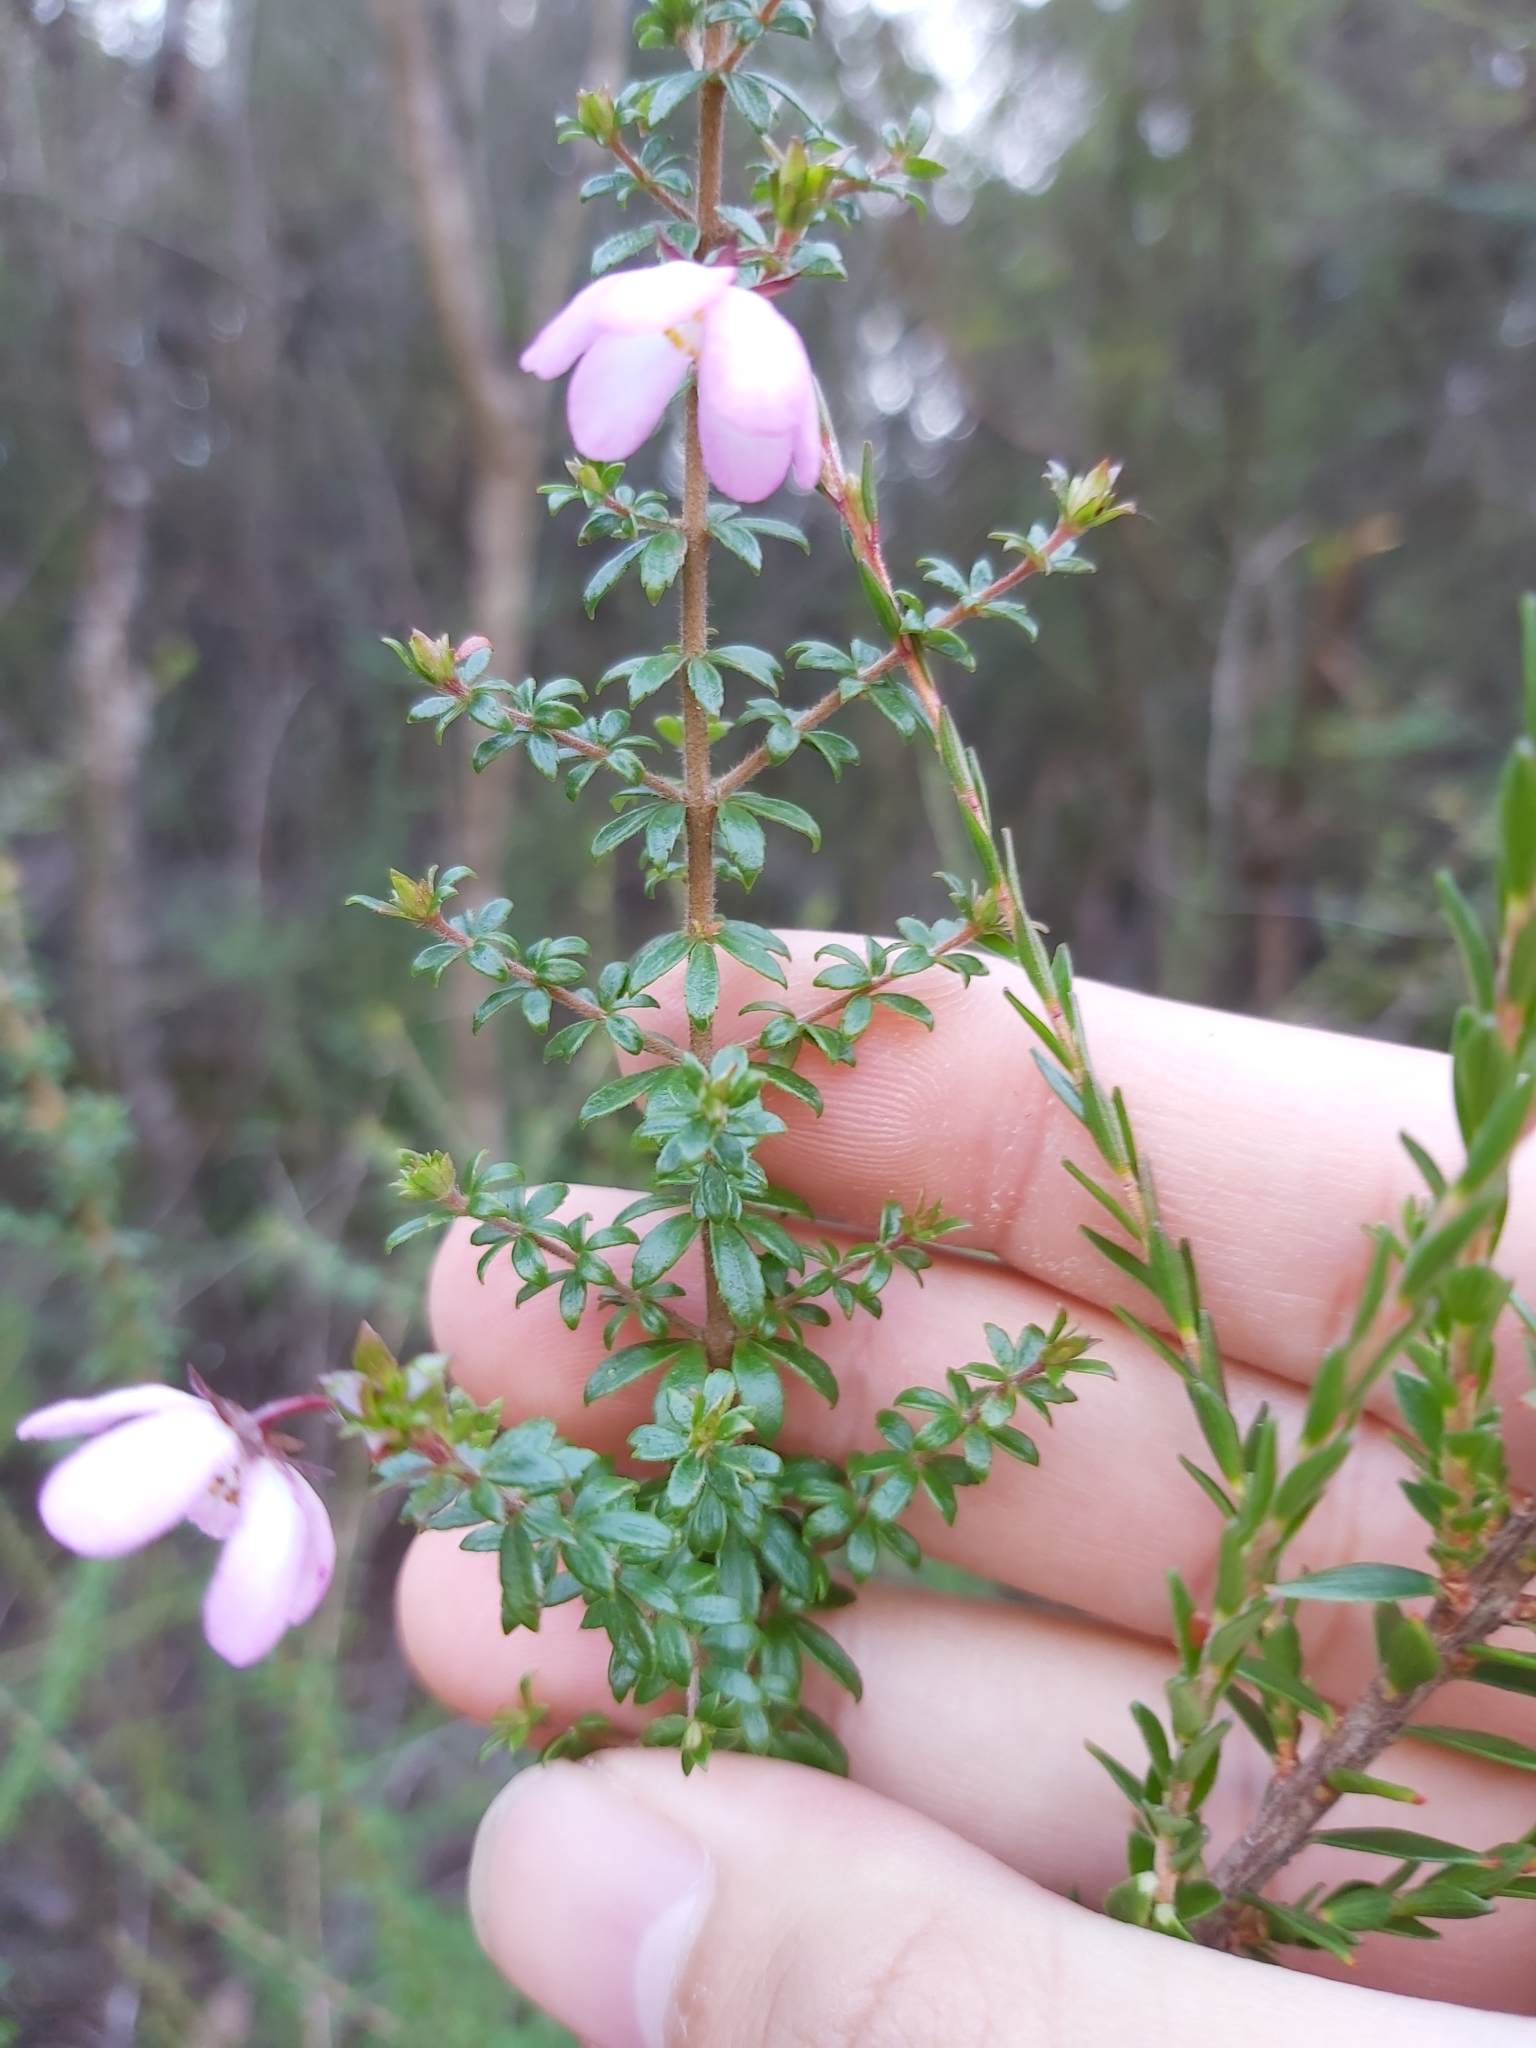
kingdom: Plantae
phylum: Tracheophyta
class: Magnoliopsida
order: Oxalidales
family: Cunoniaceae
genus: Bauera
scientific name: Bauera rubioides
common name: River-rose
